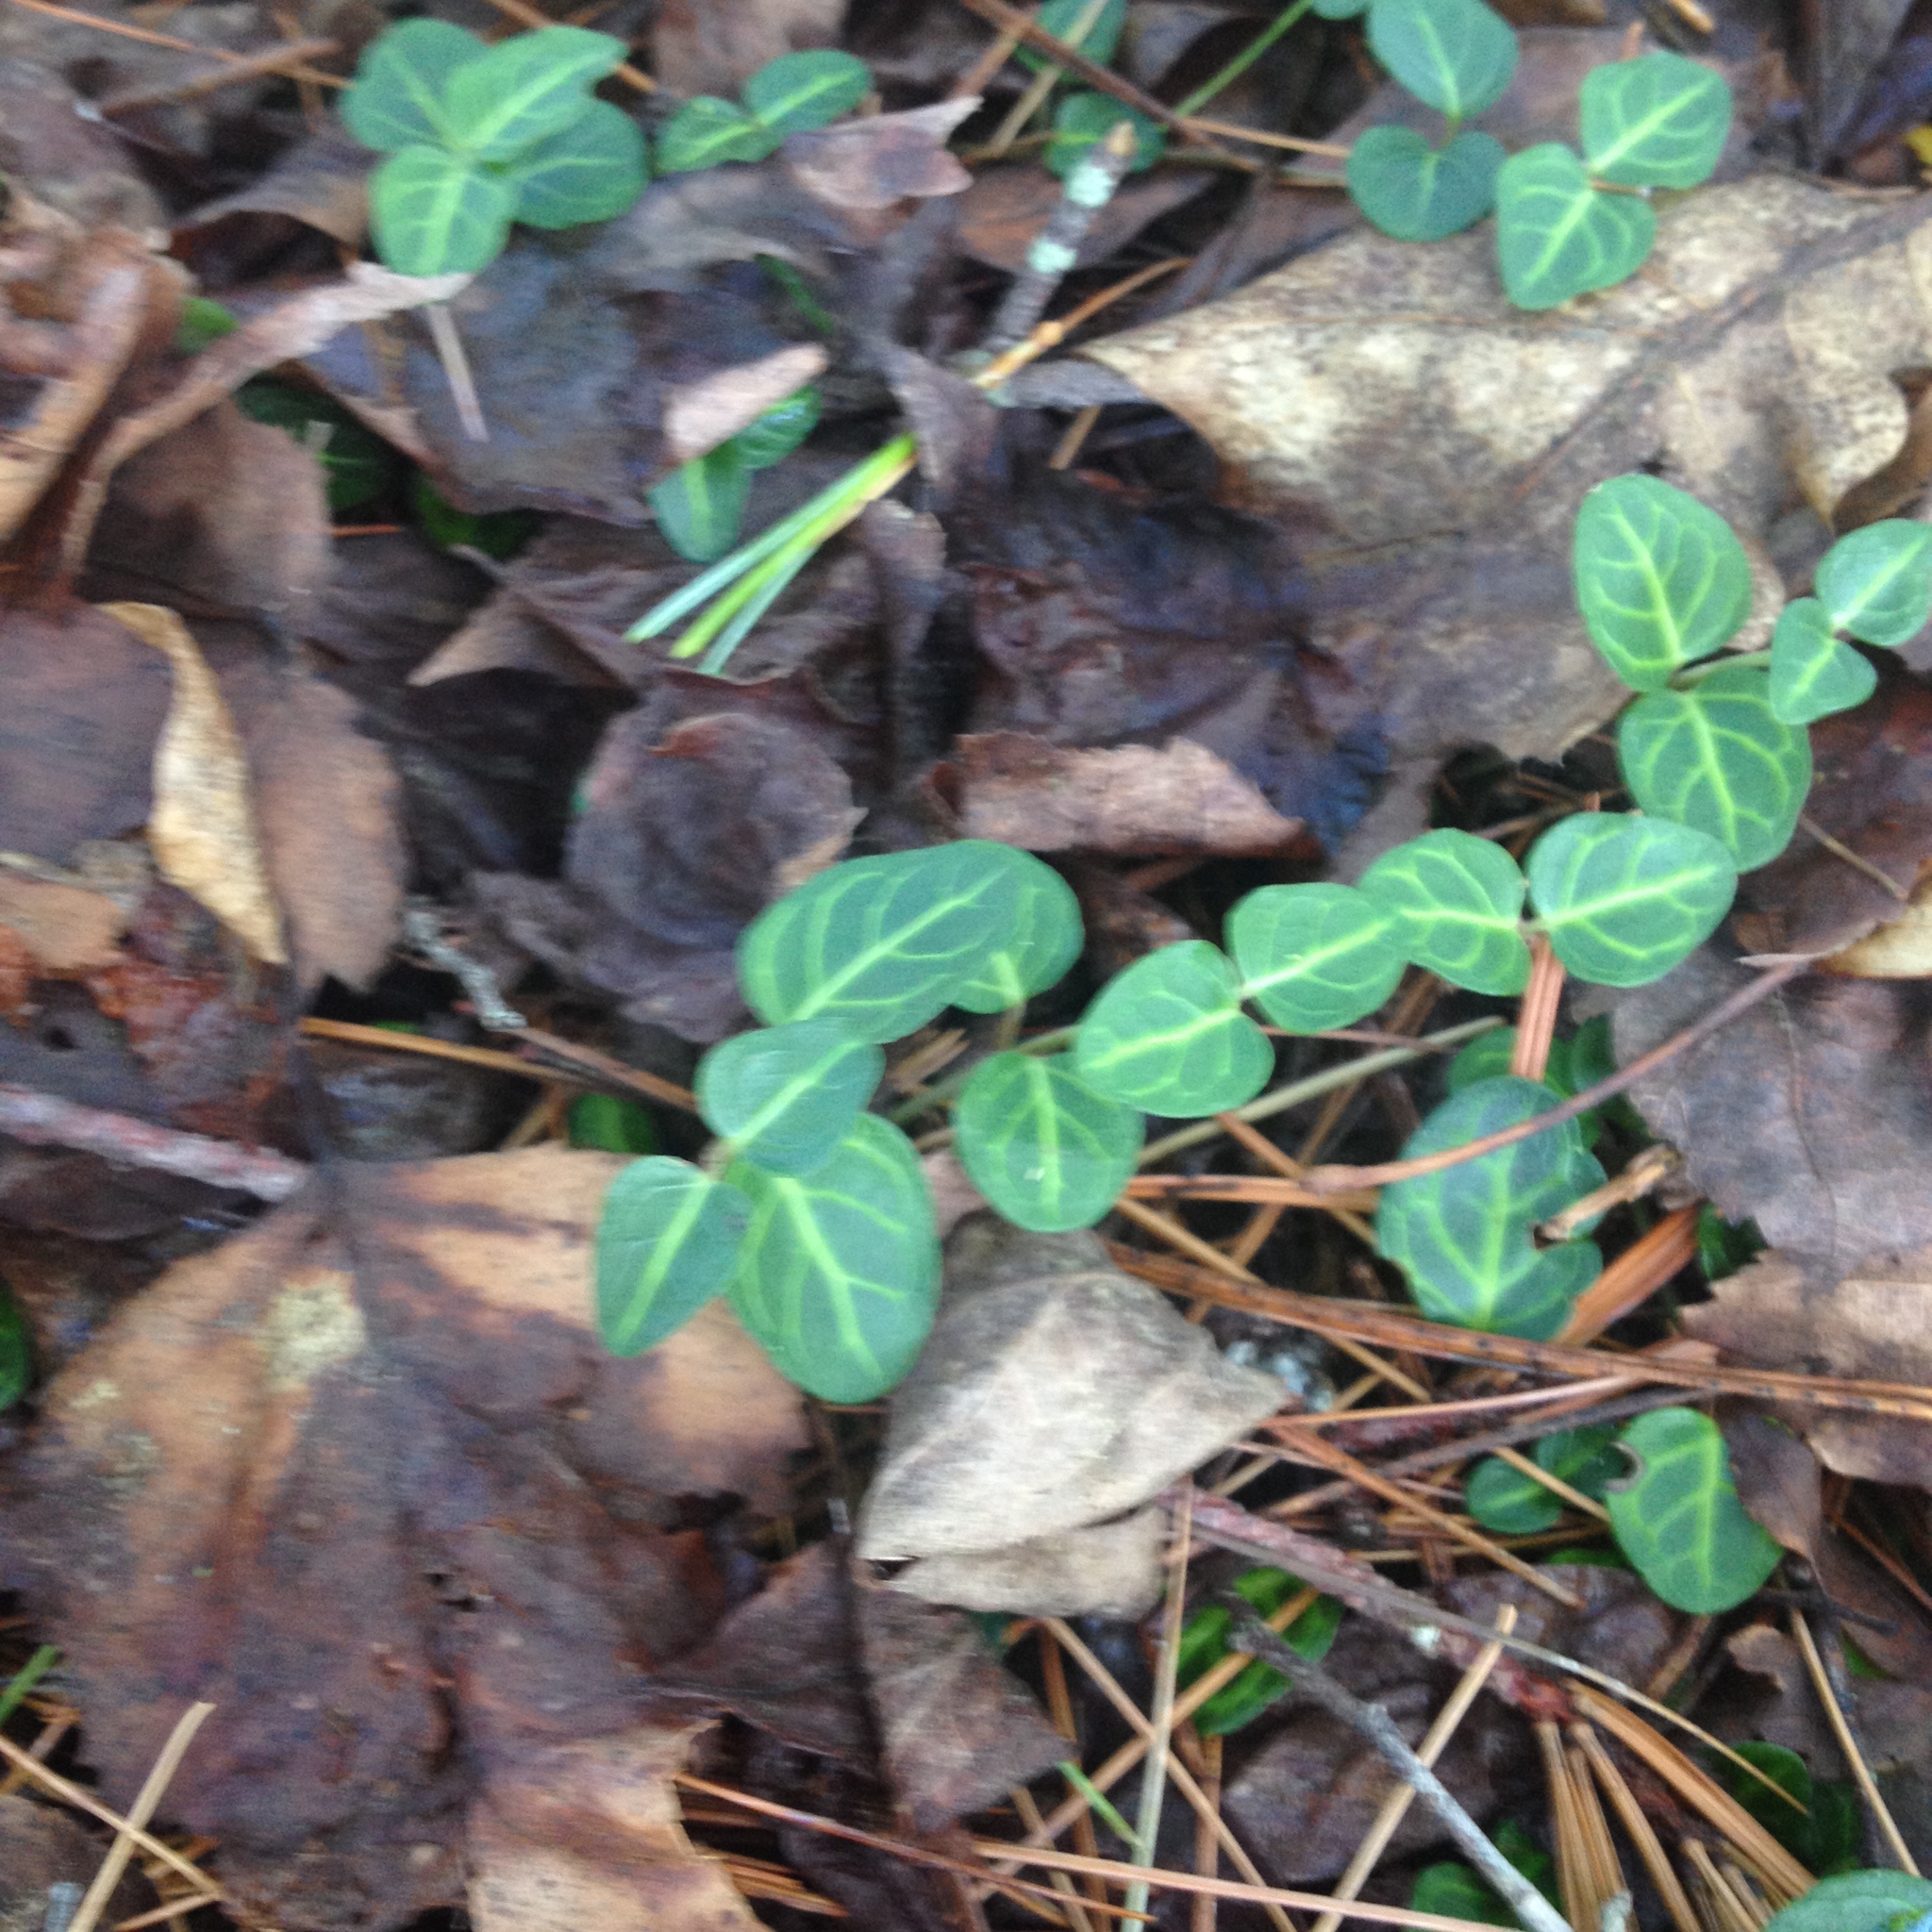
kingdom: Plantae
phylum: Tracheophyta
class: Magnoliopsida
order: Gentianales
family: Rubiaceae
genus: Mitchella
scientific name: Mitchella repens
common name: Partridge-berry
